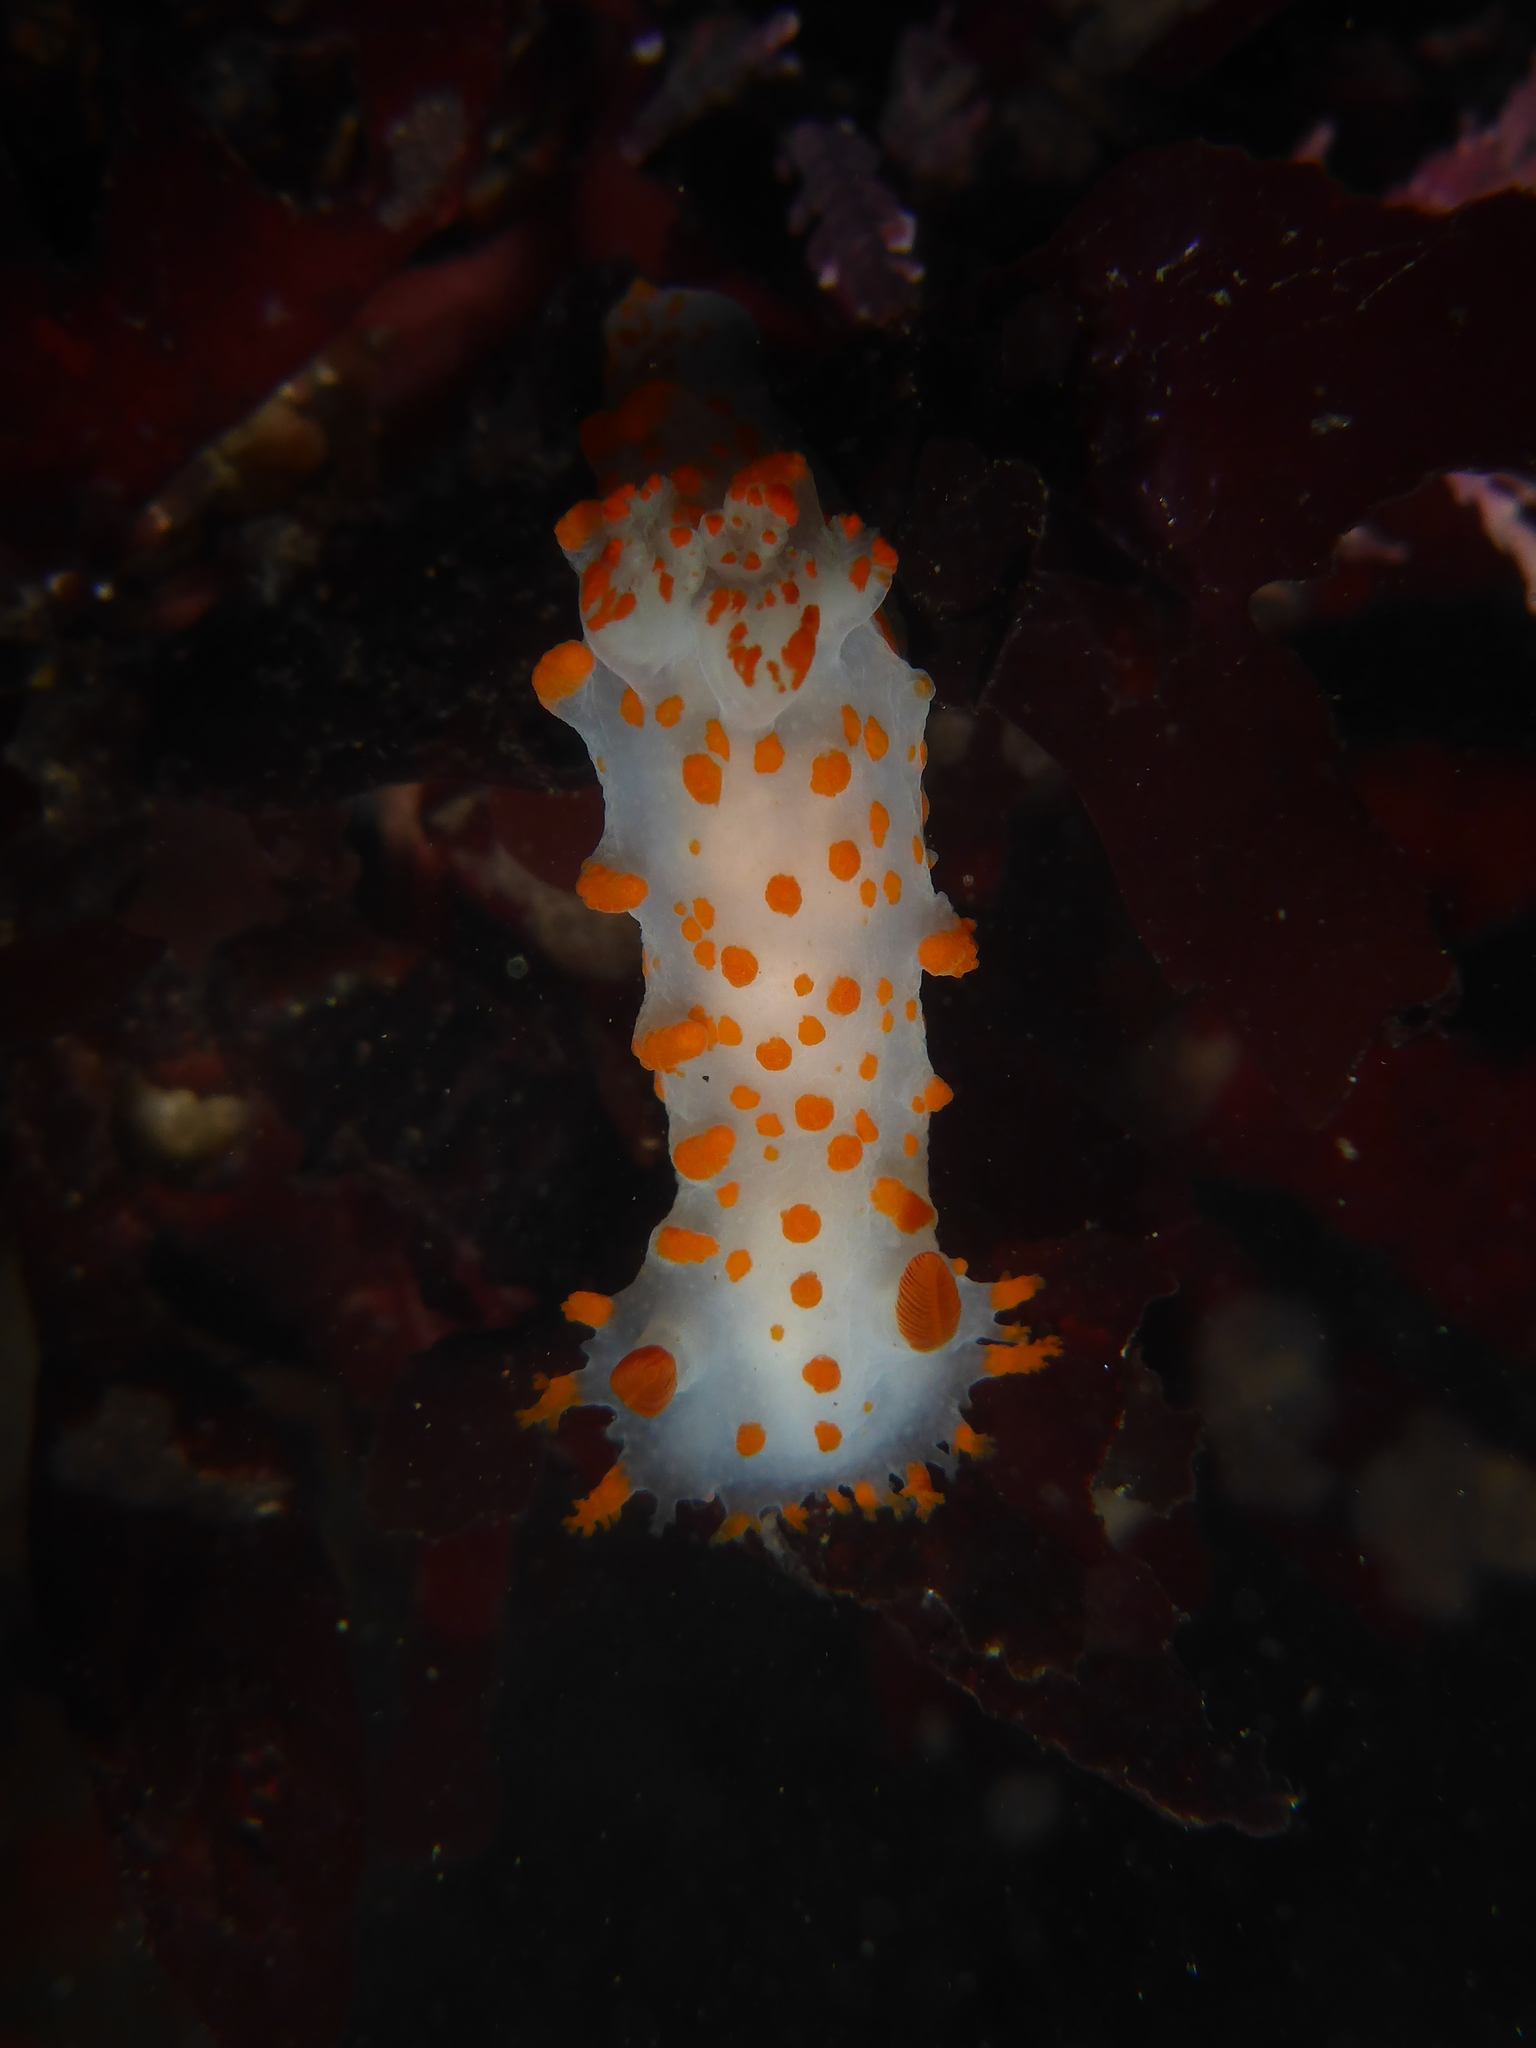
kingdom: Animalia
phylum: Mollusca
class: Gastropoda
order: Nudibranchia
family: Polyceridae
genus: Triopha
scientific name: Triopha catalinae
